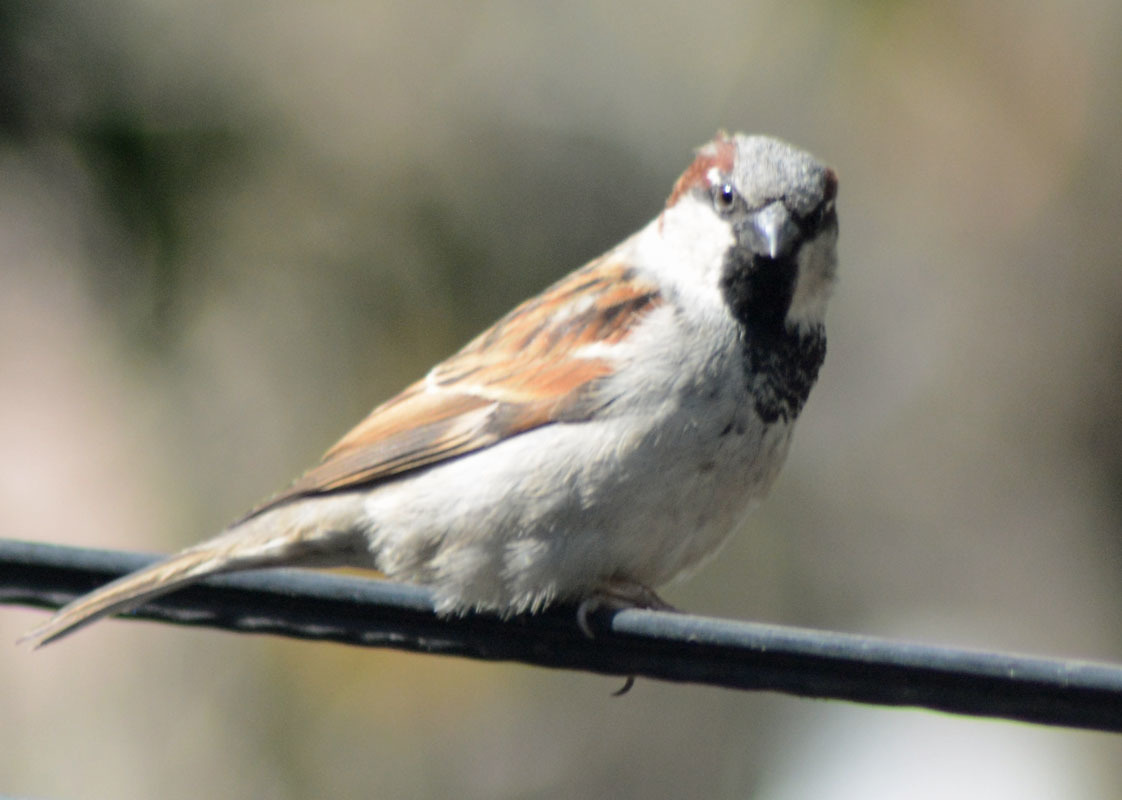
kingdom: Animalia
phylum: Chordata
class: Aves
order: Passeriformes
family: Passeridae
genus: Passer
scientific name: Passer domesticus
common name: House sparrow
